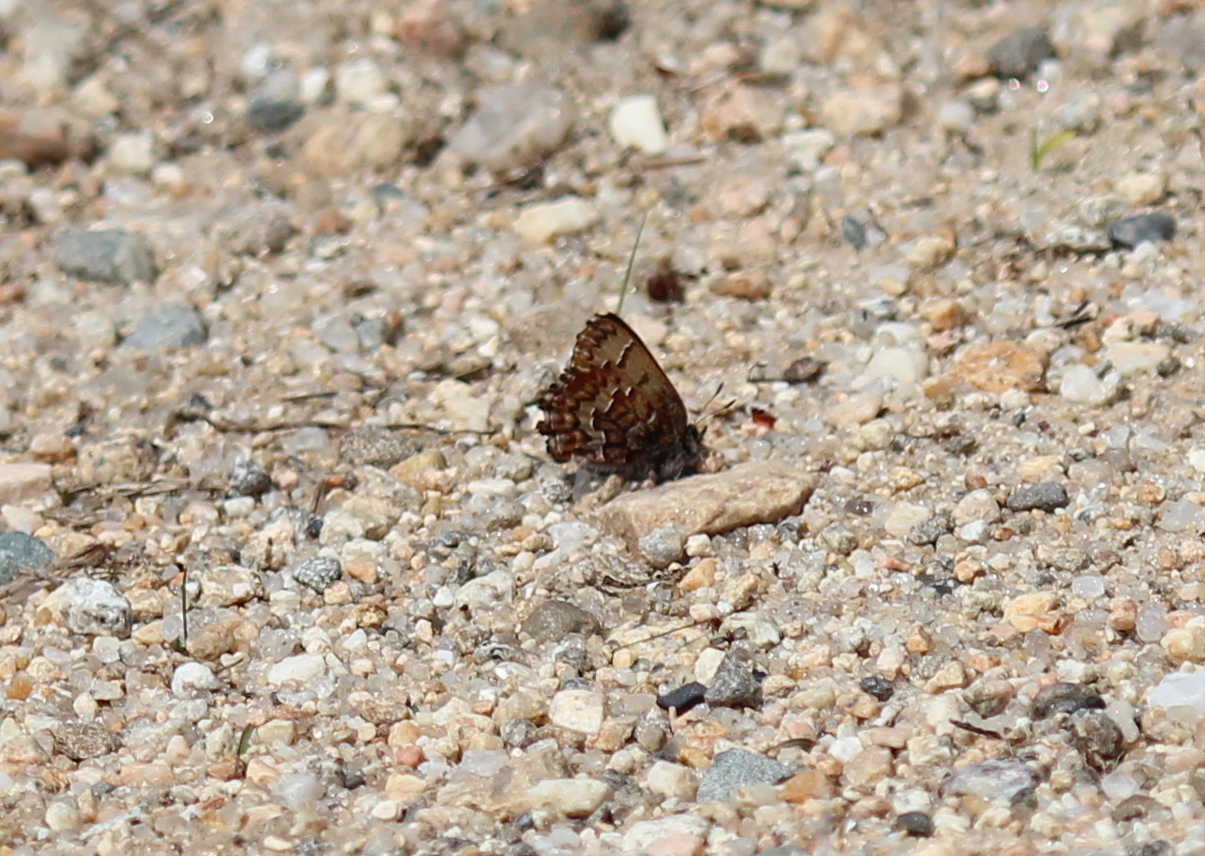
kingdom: Animalia
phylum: Arthropoda
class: Insecta
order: Lepidoptera
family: Lycaenidae
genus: Incisalia
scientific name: Incisalia niphon
